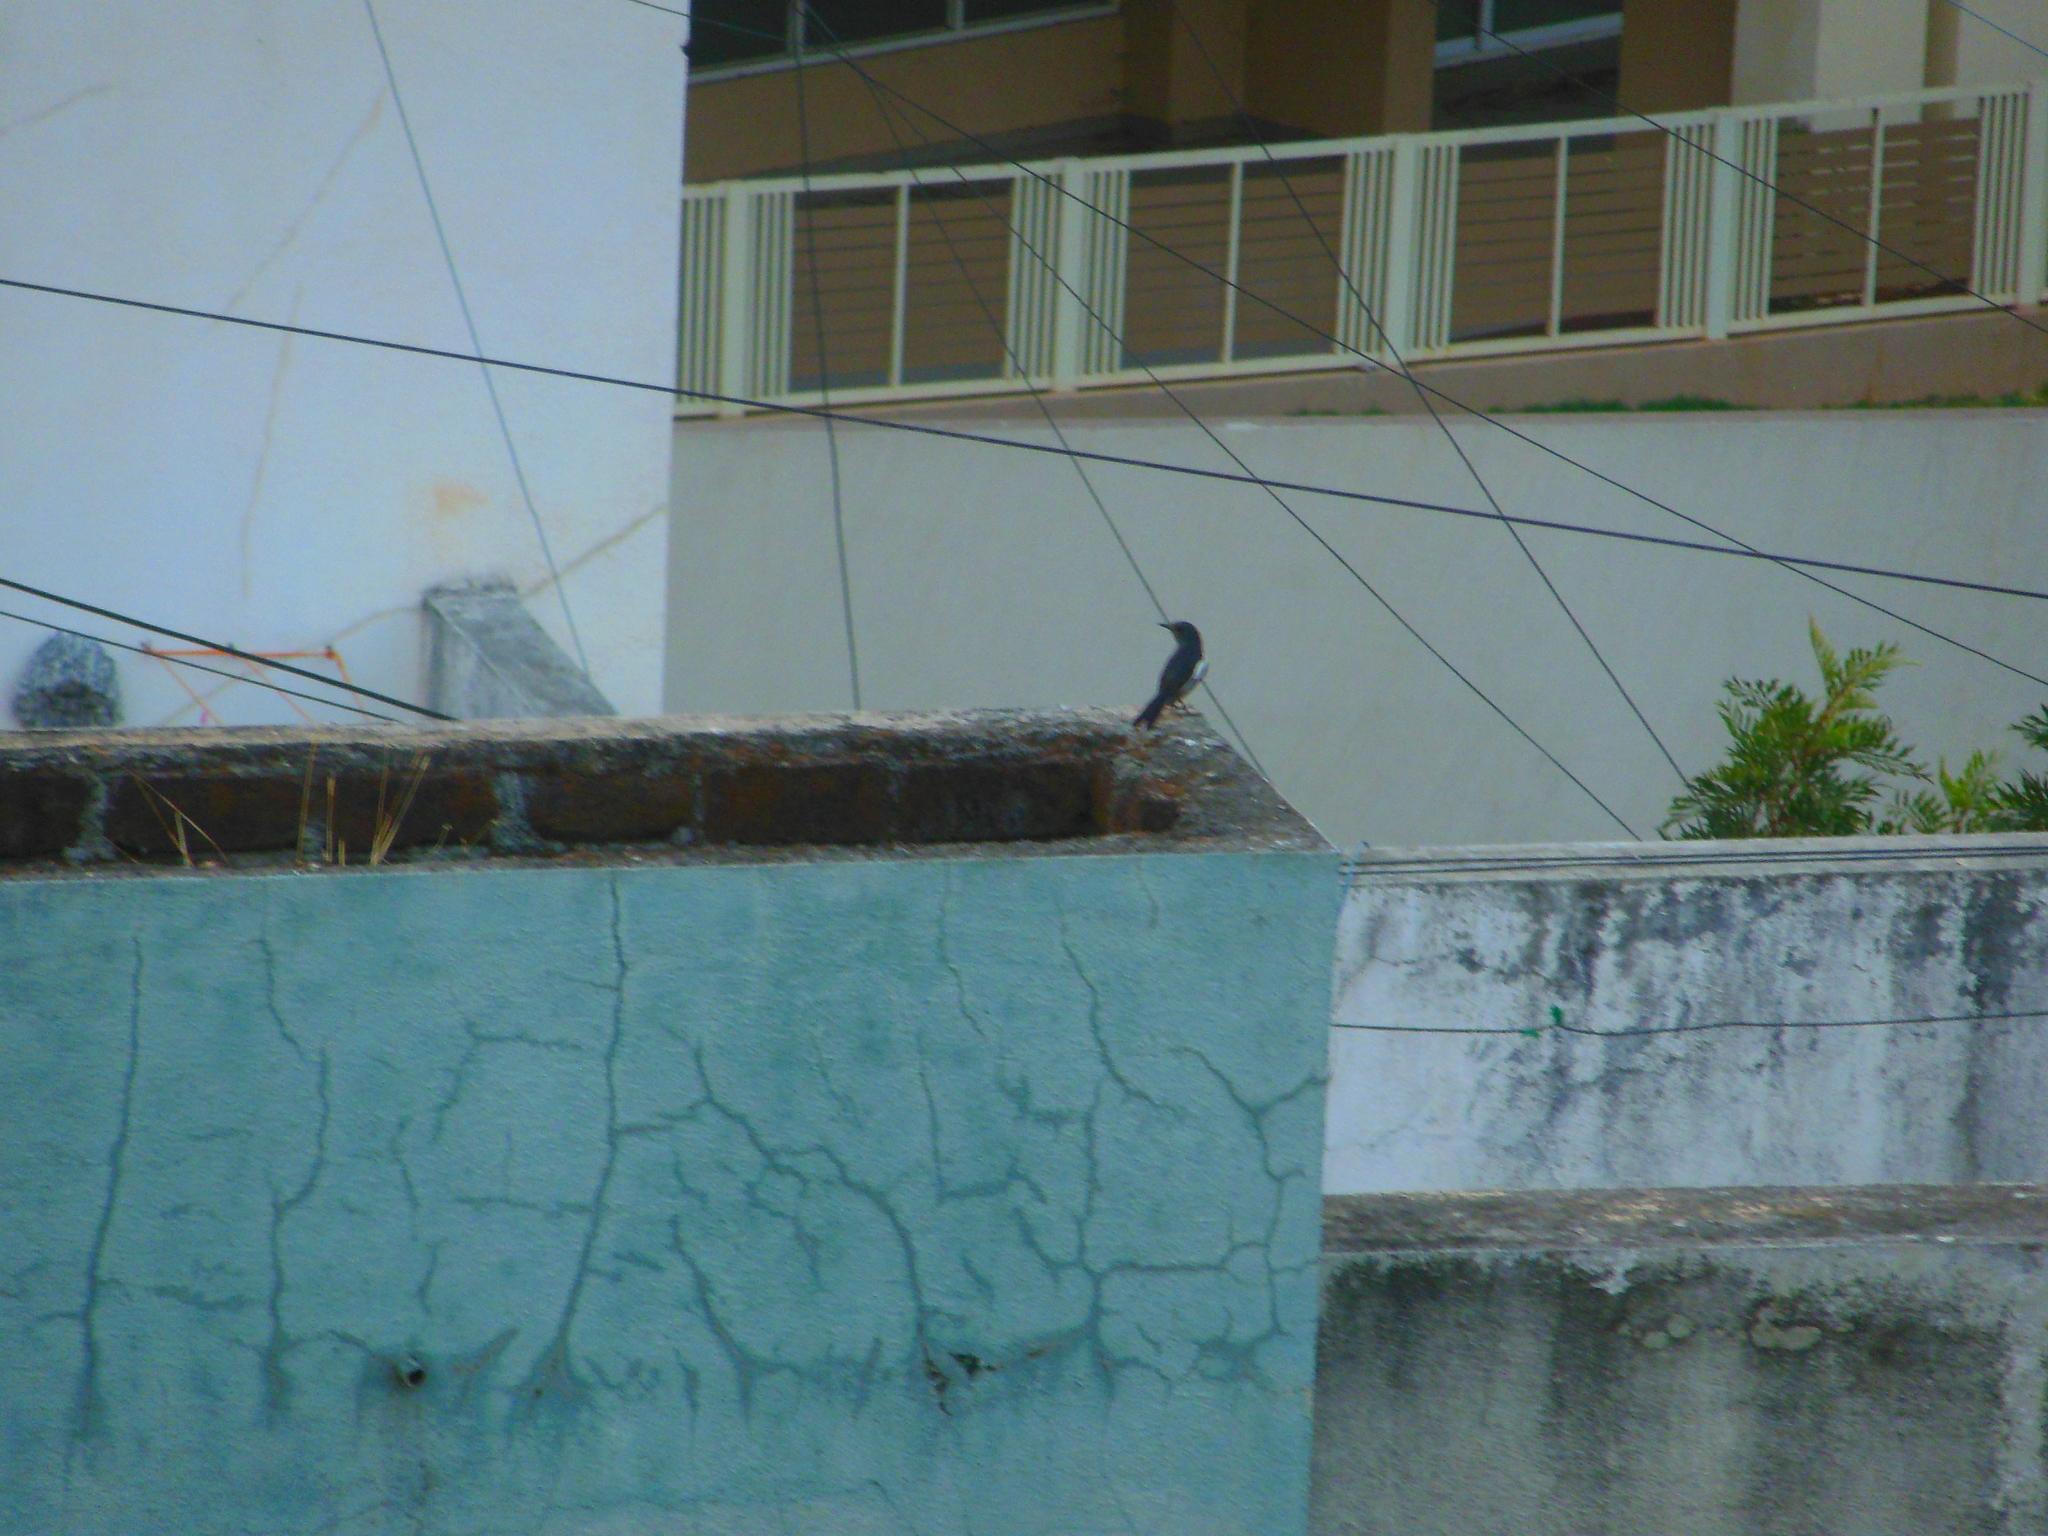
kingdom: Animalia
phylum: Chordata
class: Aves
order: Passeriformes
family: Muscicapidae
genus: Copsychus
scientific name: Copsychus saularis
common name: Oriental magpie-robin
